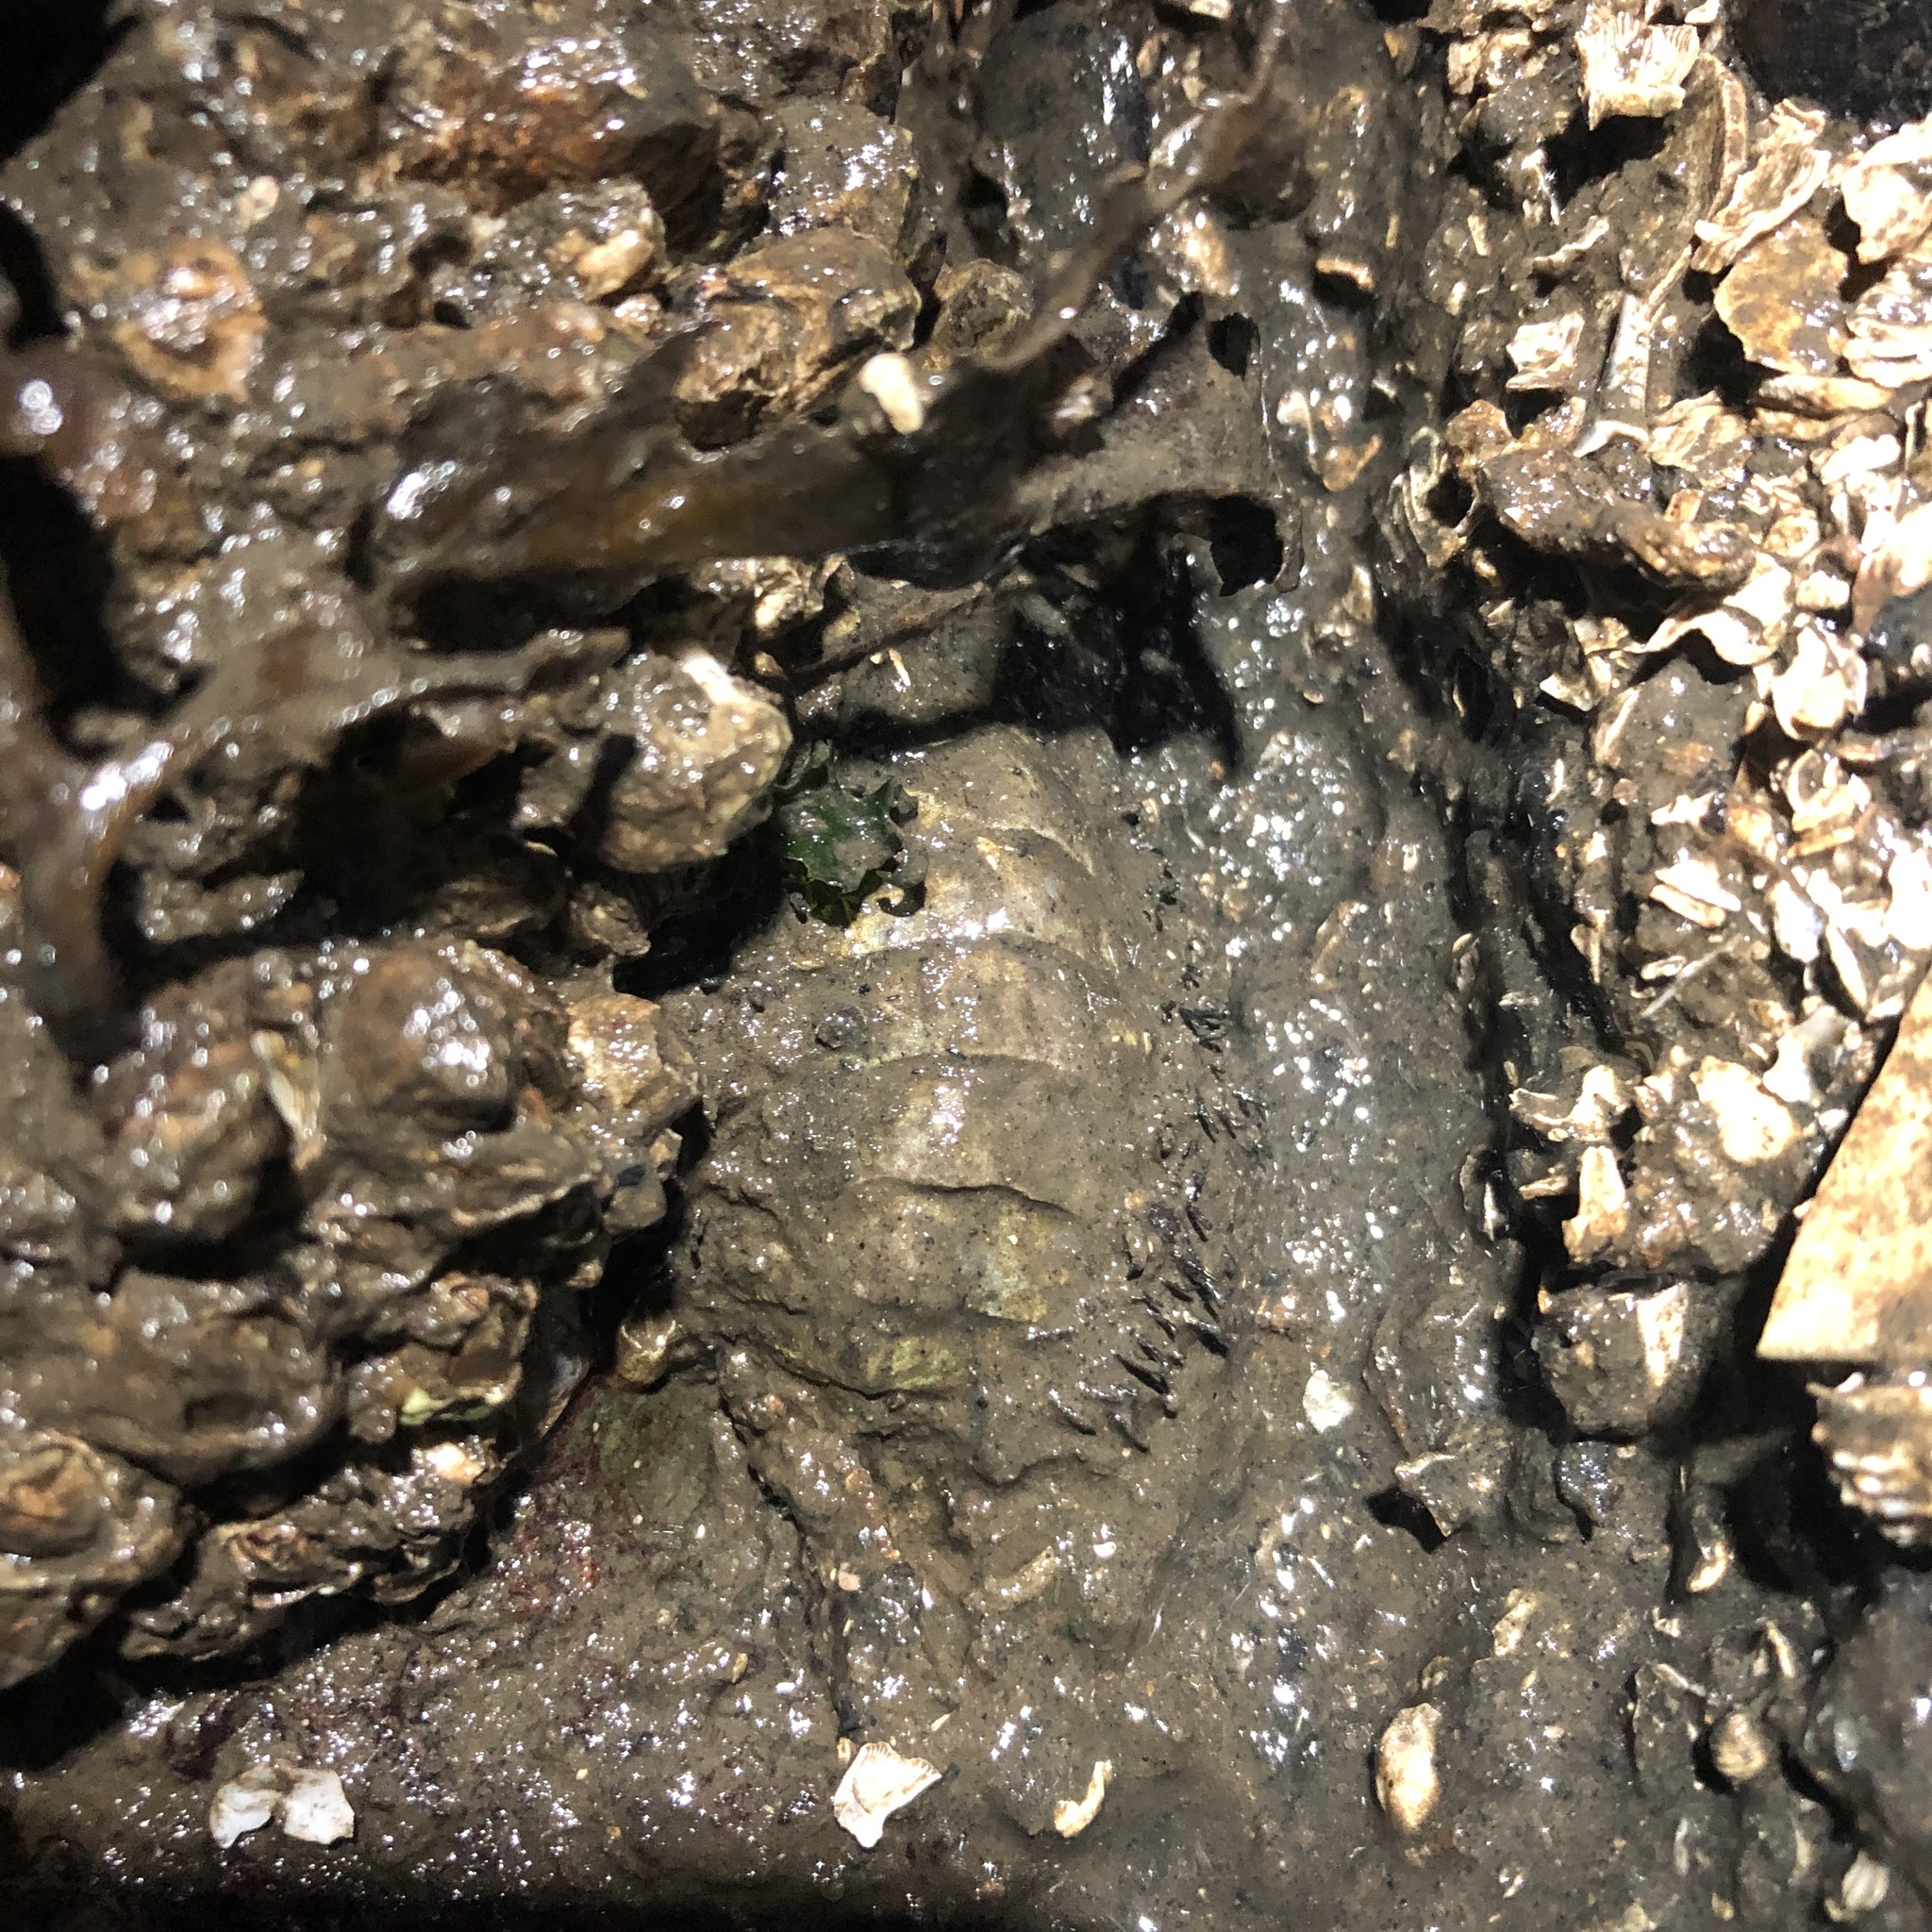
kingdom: Animalia
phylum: Mollusca
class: Polyplacophora
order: Chitonida
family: Mopaliidae
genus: Mopalia
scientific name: Mopalia muscosa
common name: Mossy chiton
